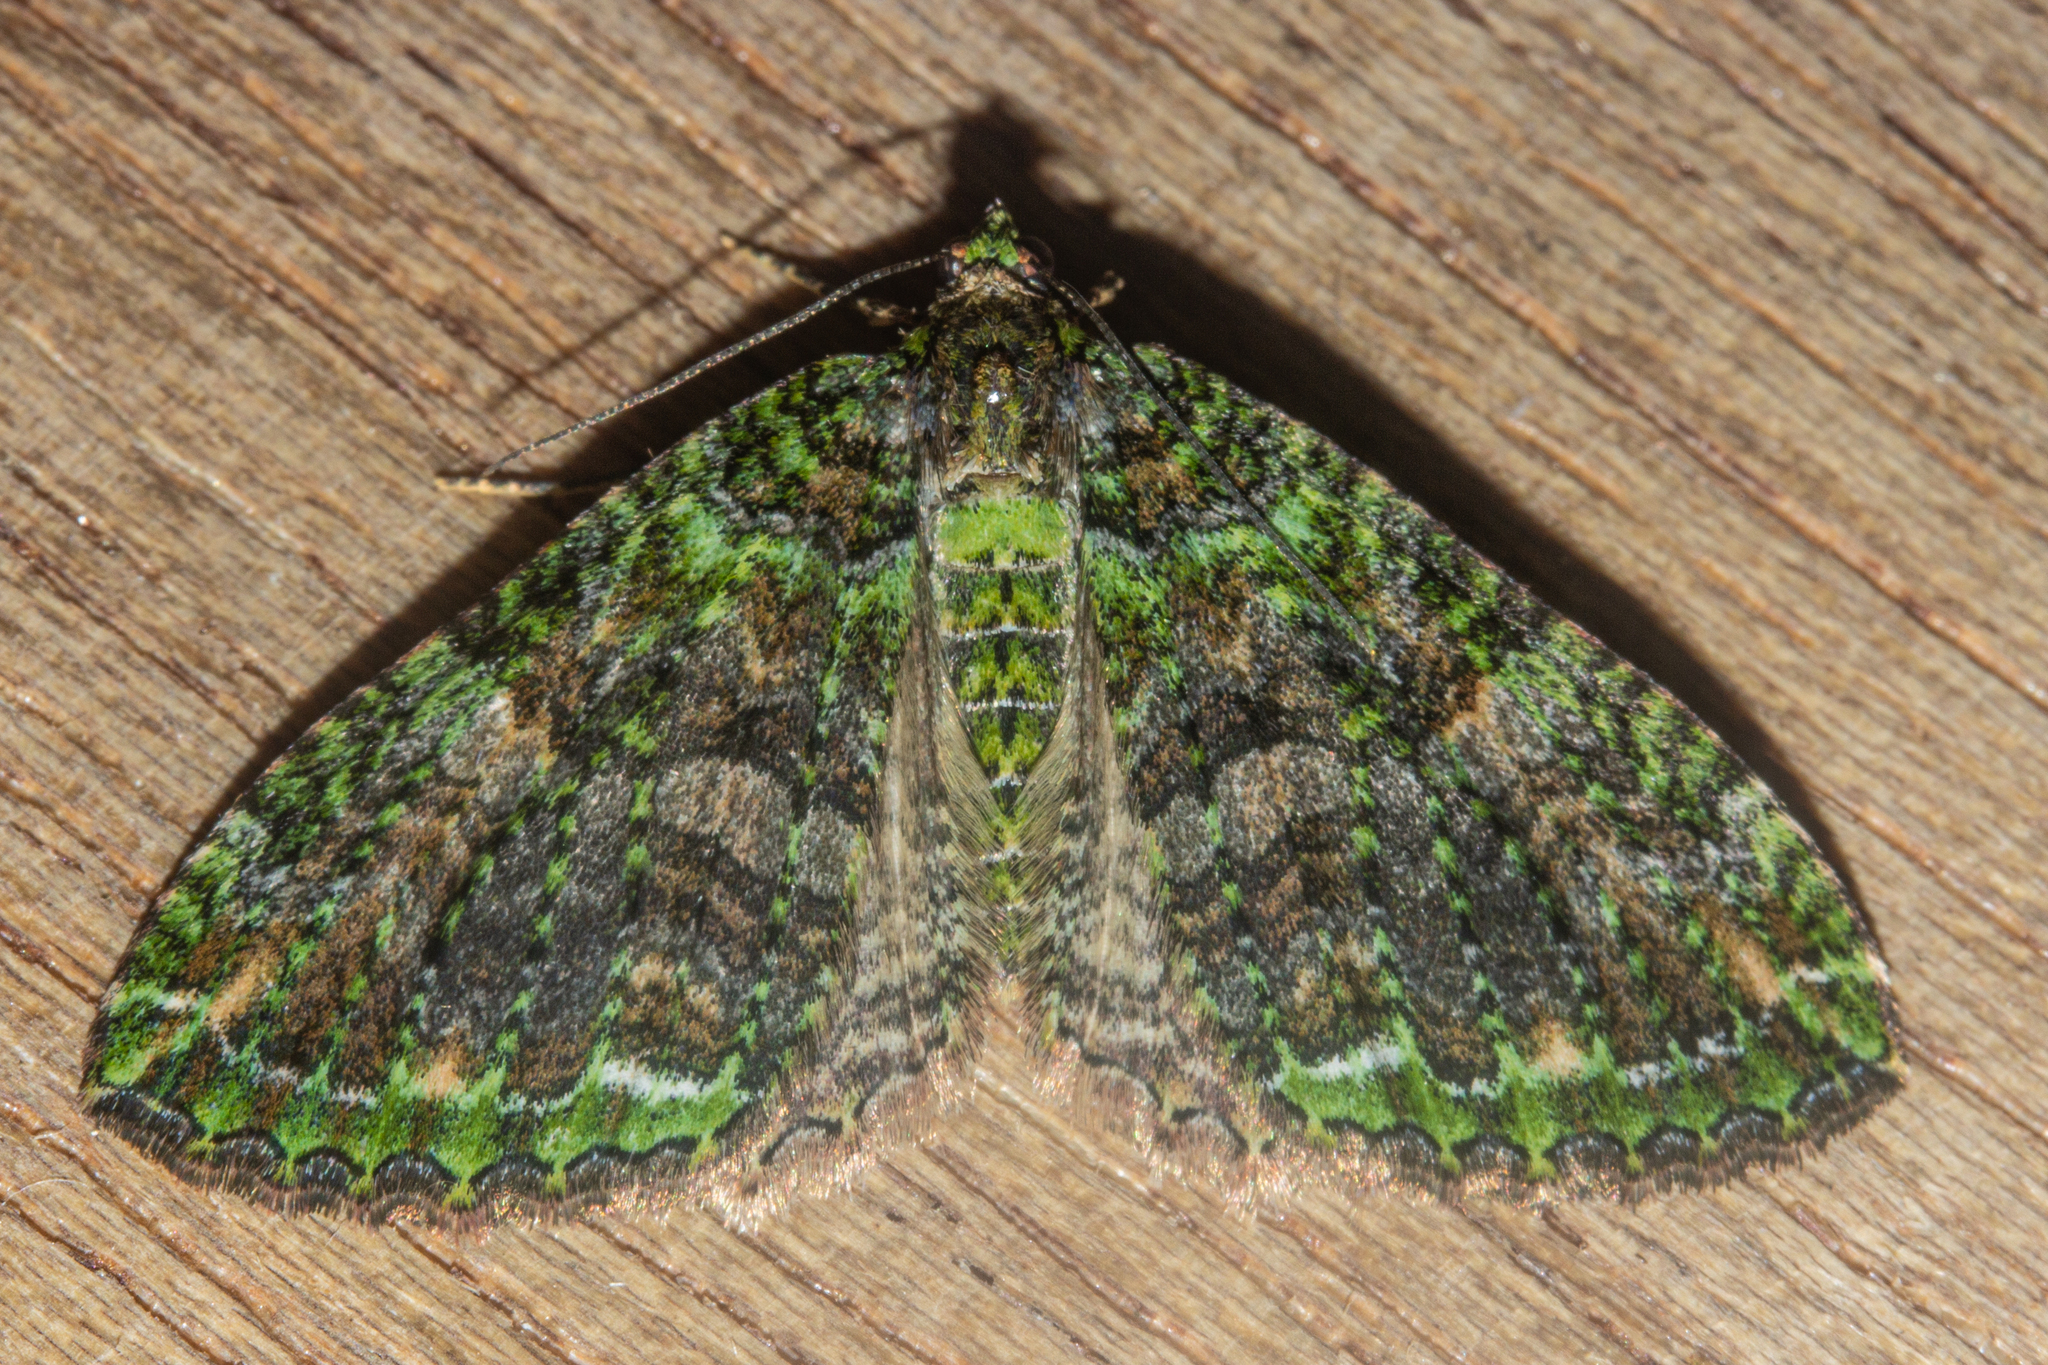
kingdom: Animalia
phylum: Arthropoda
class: Insecta
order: Lepidoptera
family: Geometridae
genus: Austrocidaria
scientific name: Austrocidaria similata
